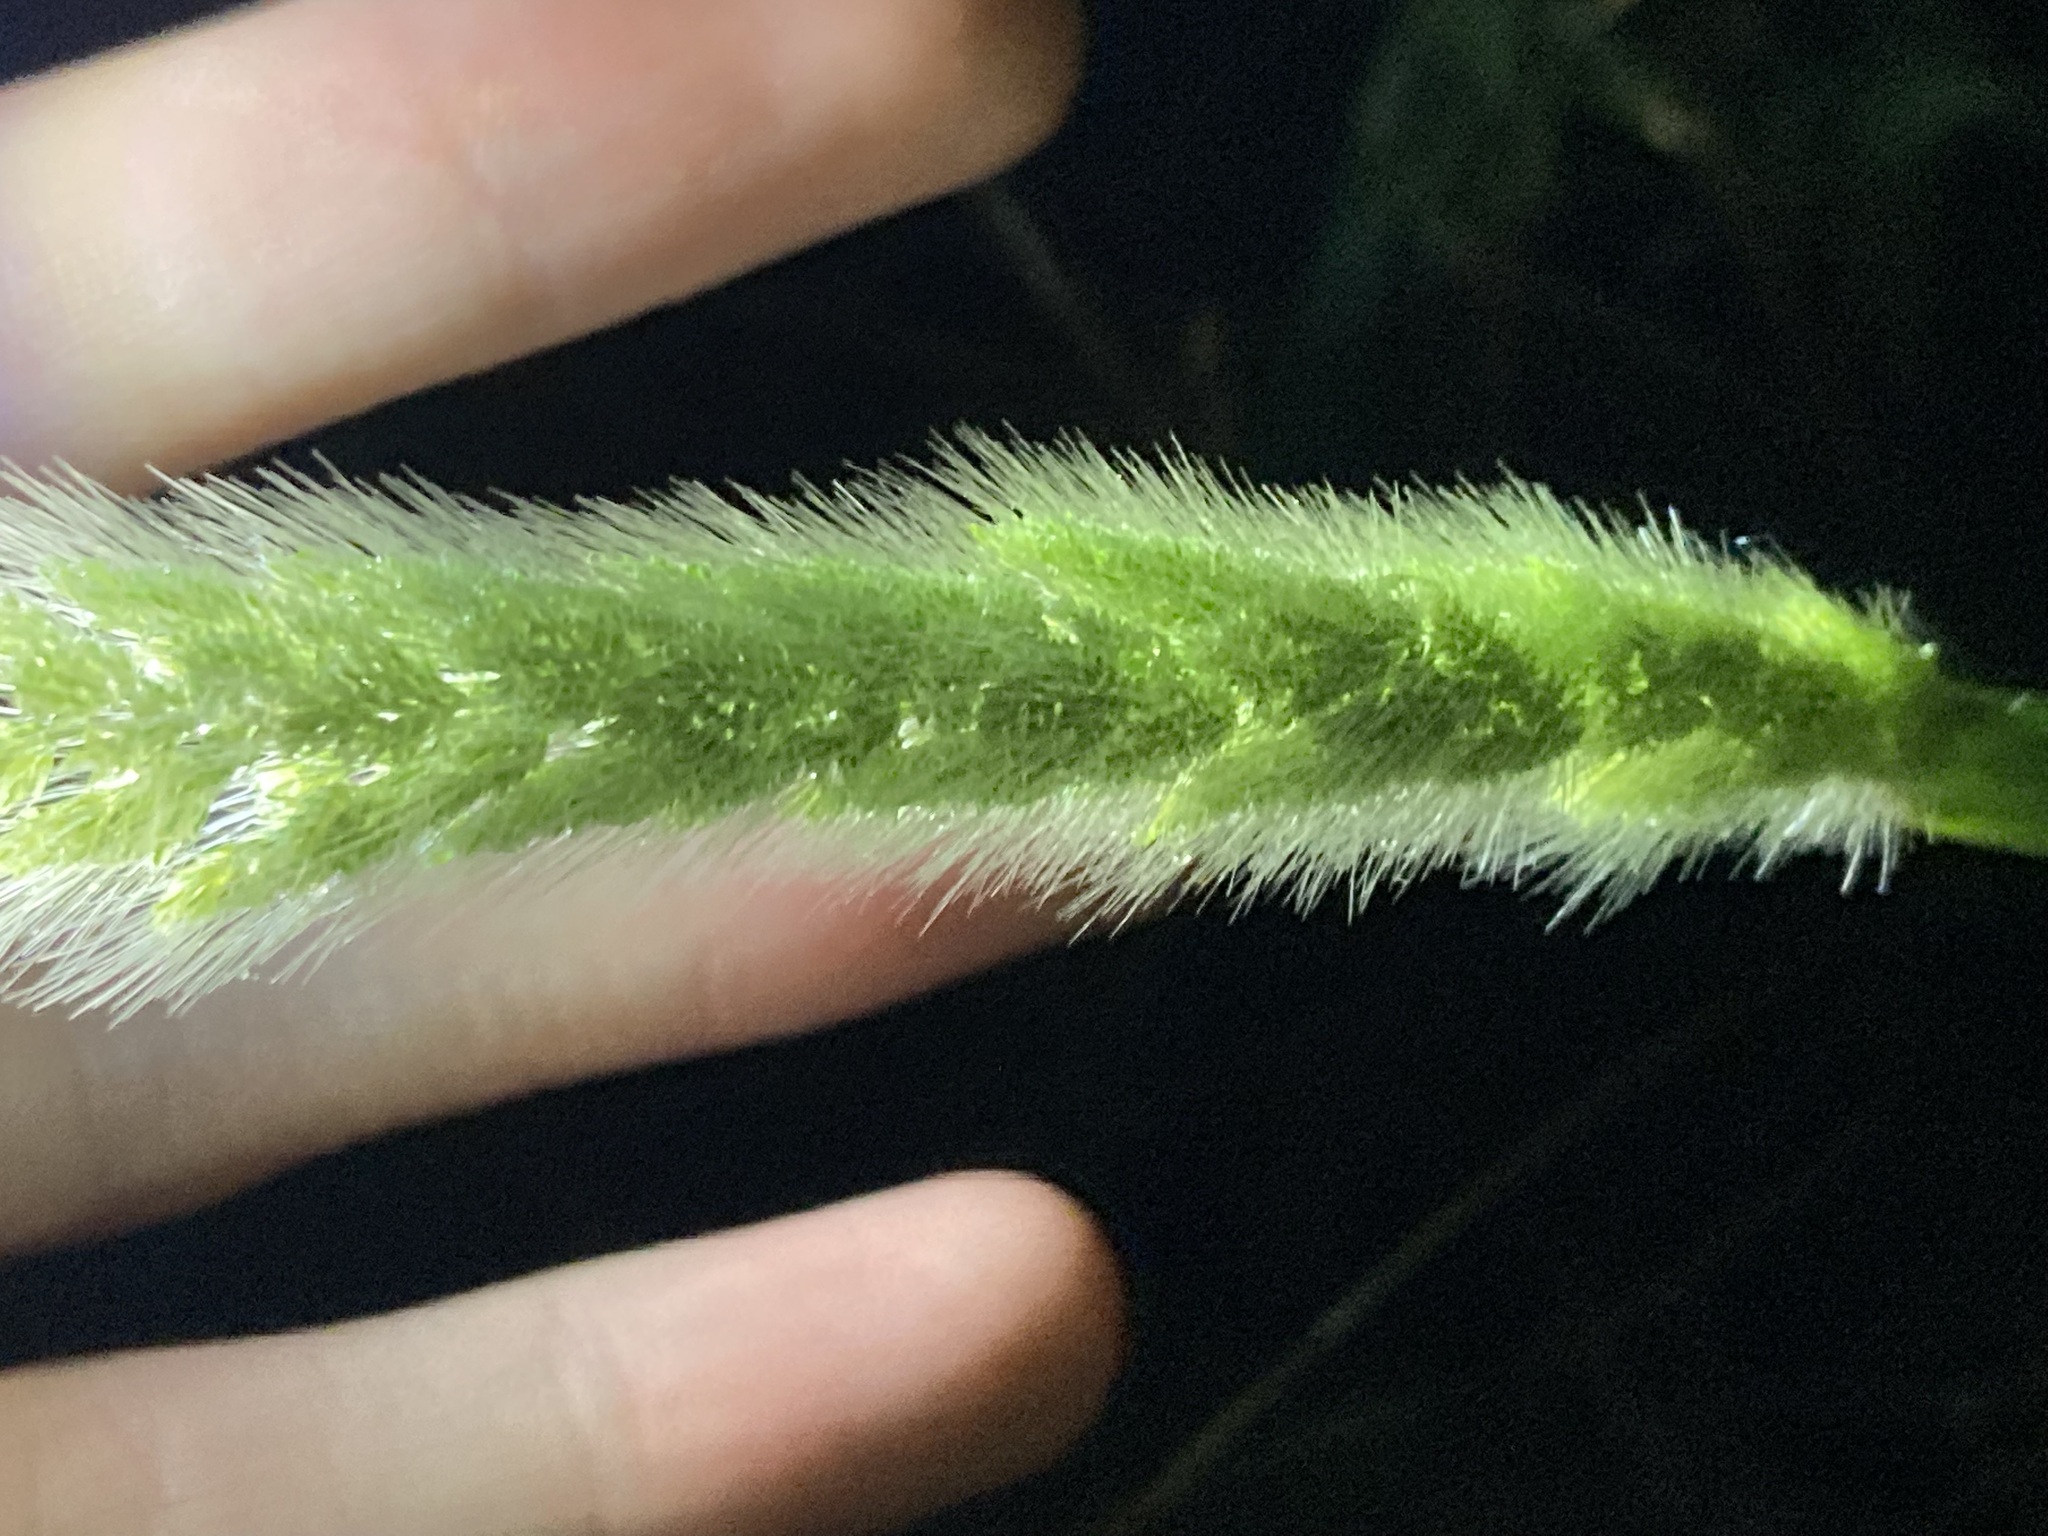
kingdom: Plantae
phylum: Tracheophyta
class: Liliopsida
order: Poales
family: Poaceae
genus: Polypogon
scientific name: Polypogon monspeliensis
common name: Annual rabbitsfoot grass
